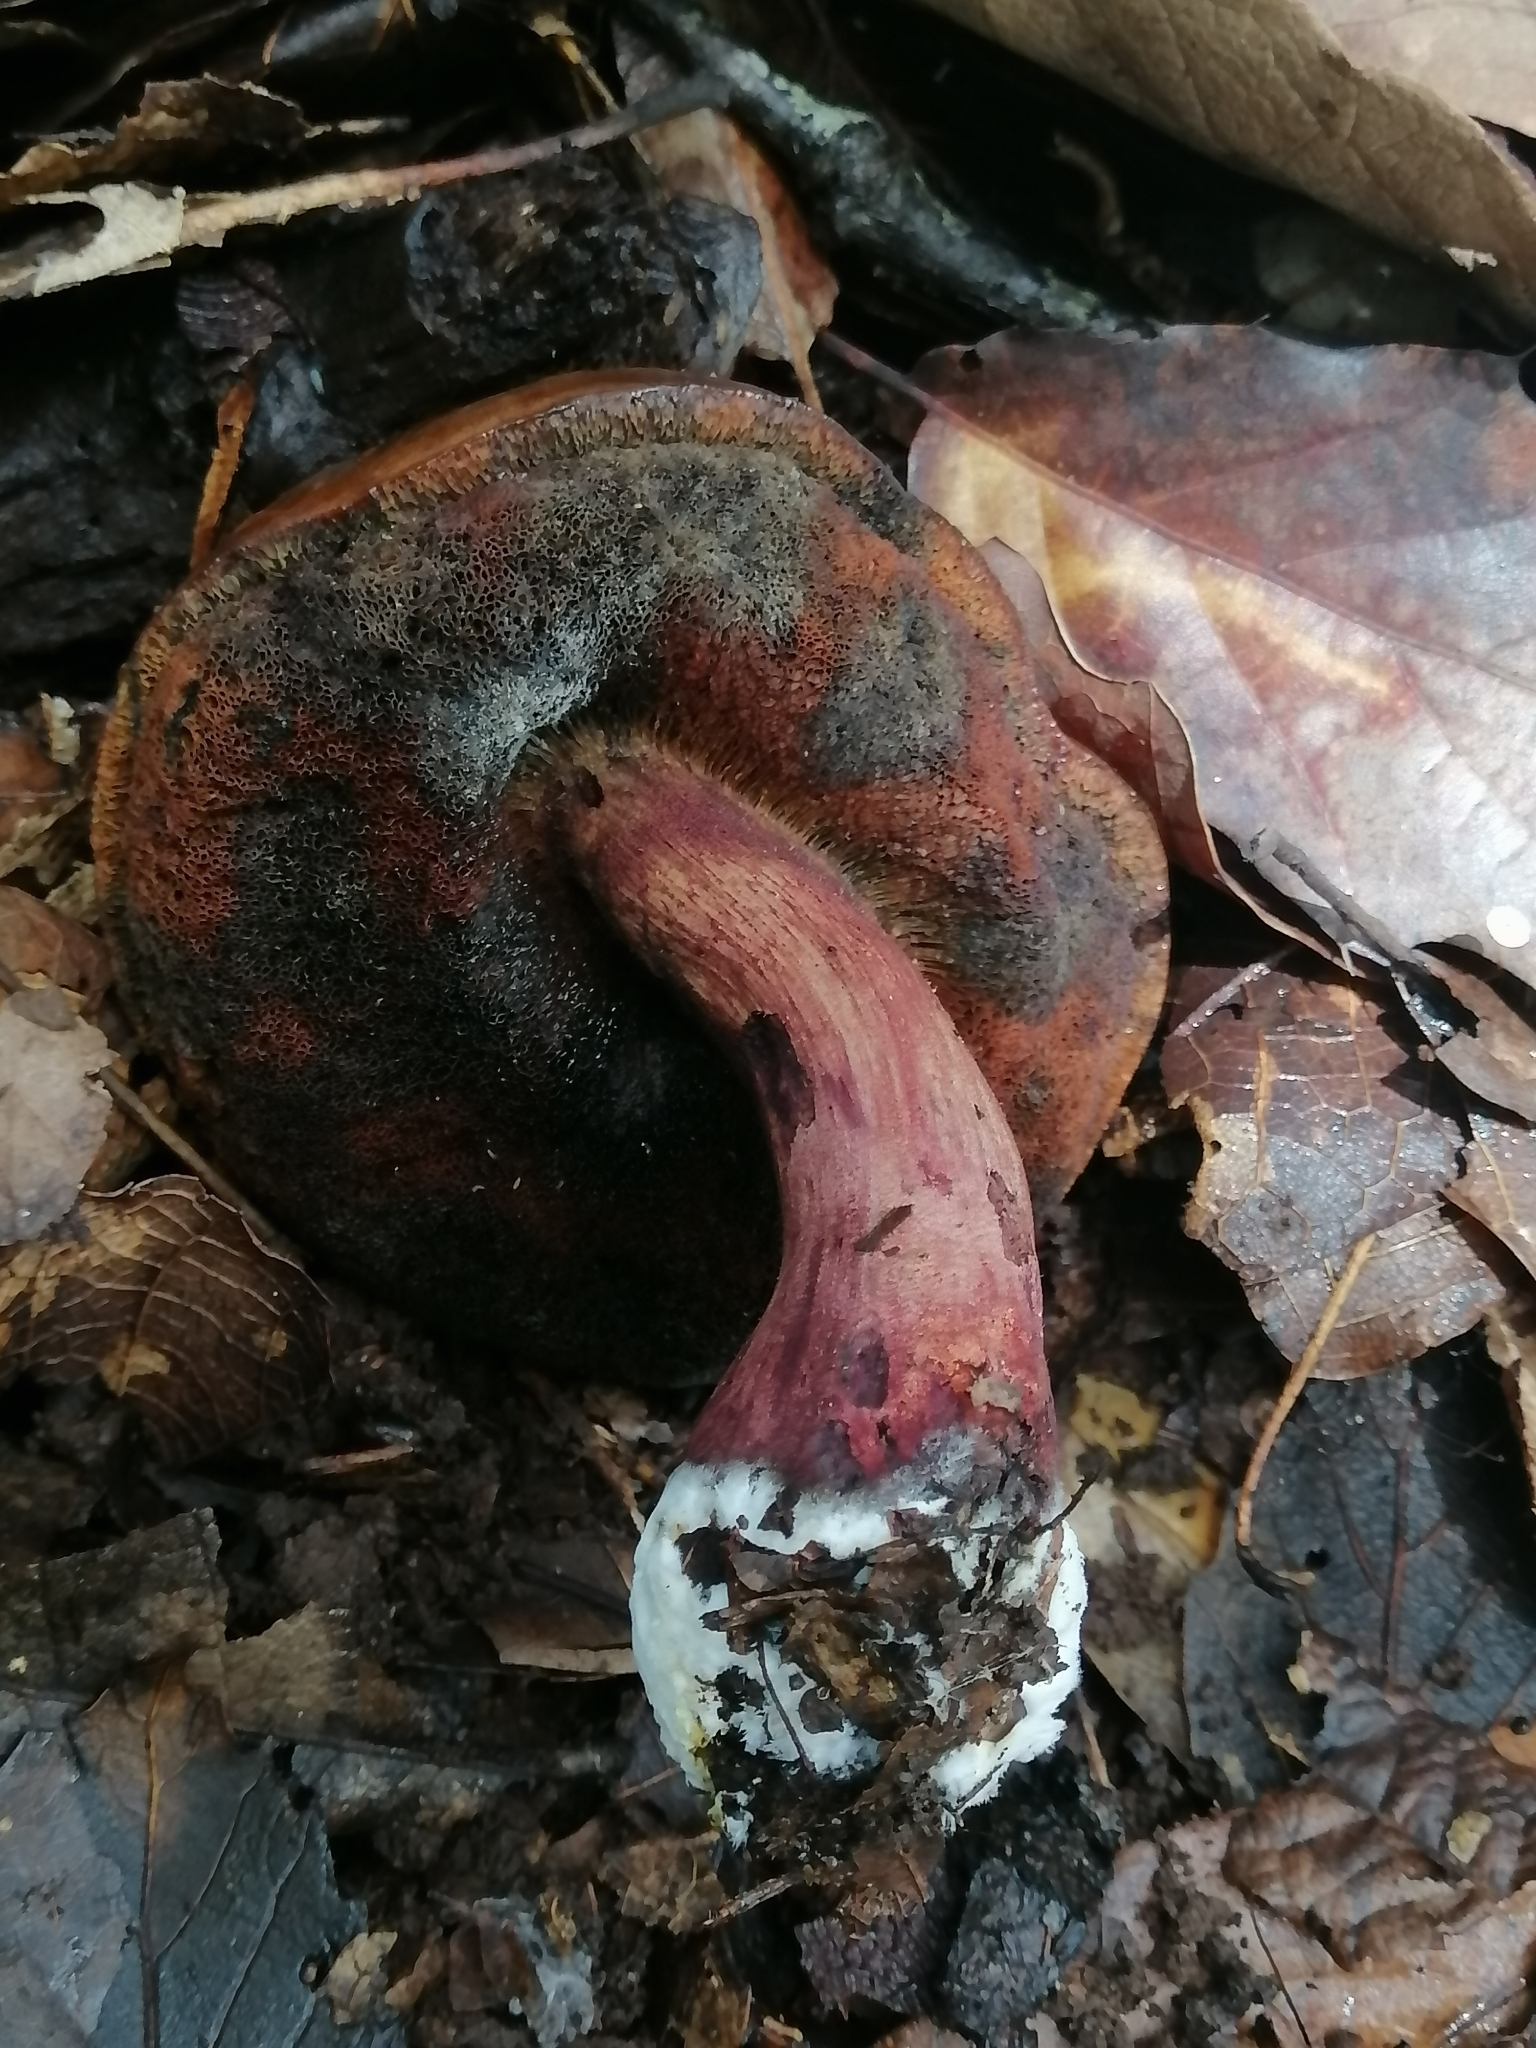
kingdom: Fungi
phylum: Basidiomycota
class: Agaricomycetes
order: Boletales
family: Boletaceae
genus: Boletus
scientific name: Boletus subvelutipes
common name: Red-mouth bolete
